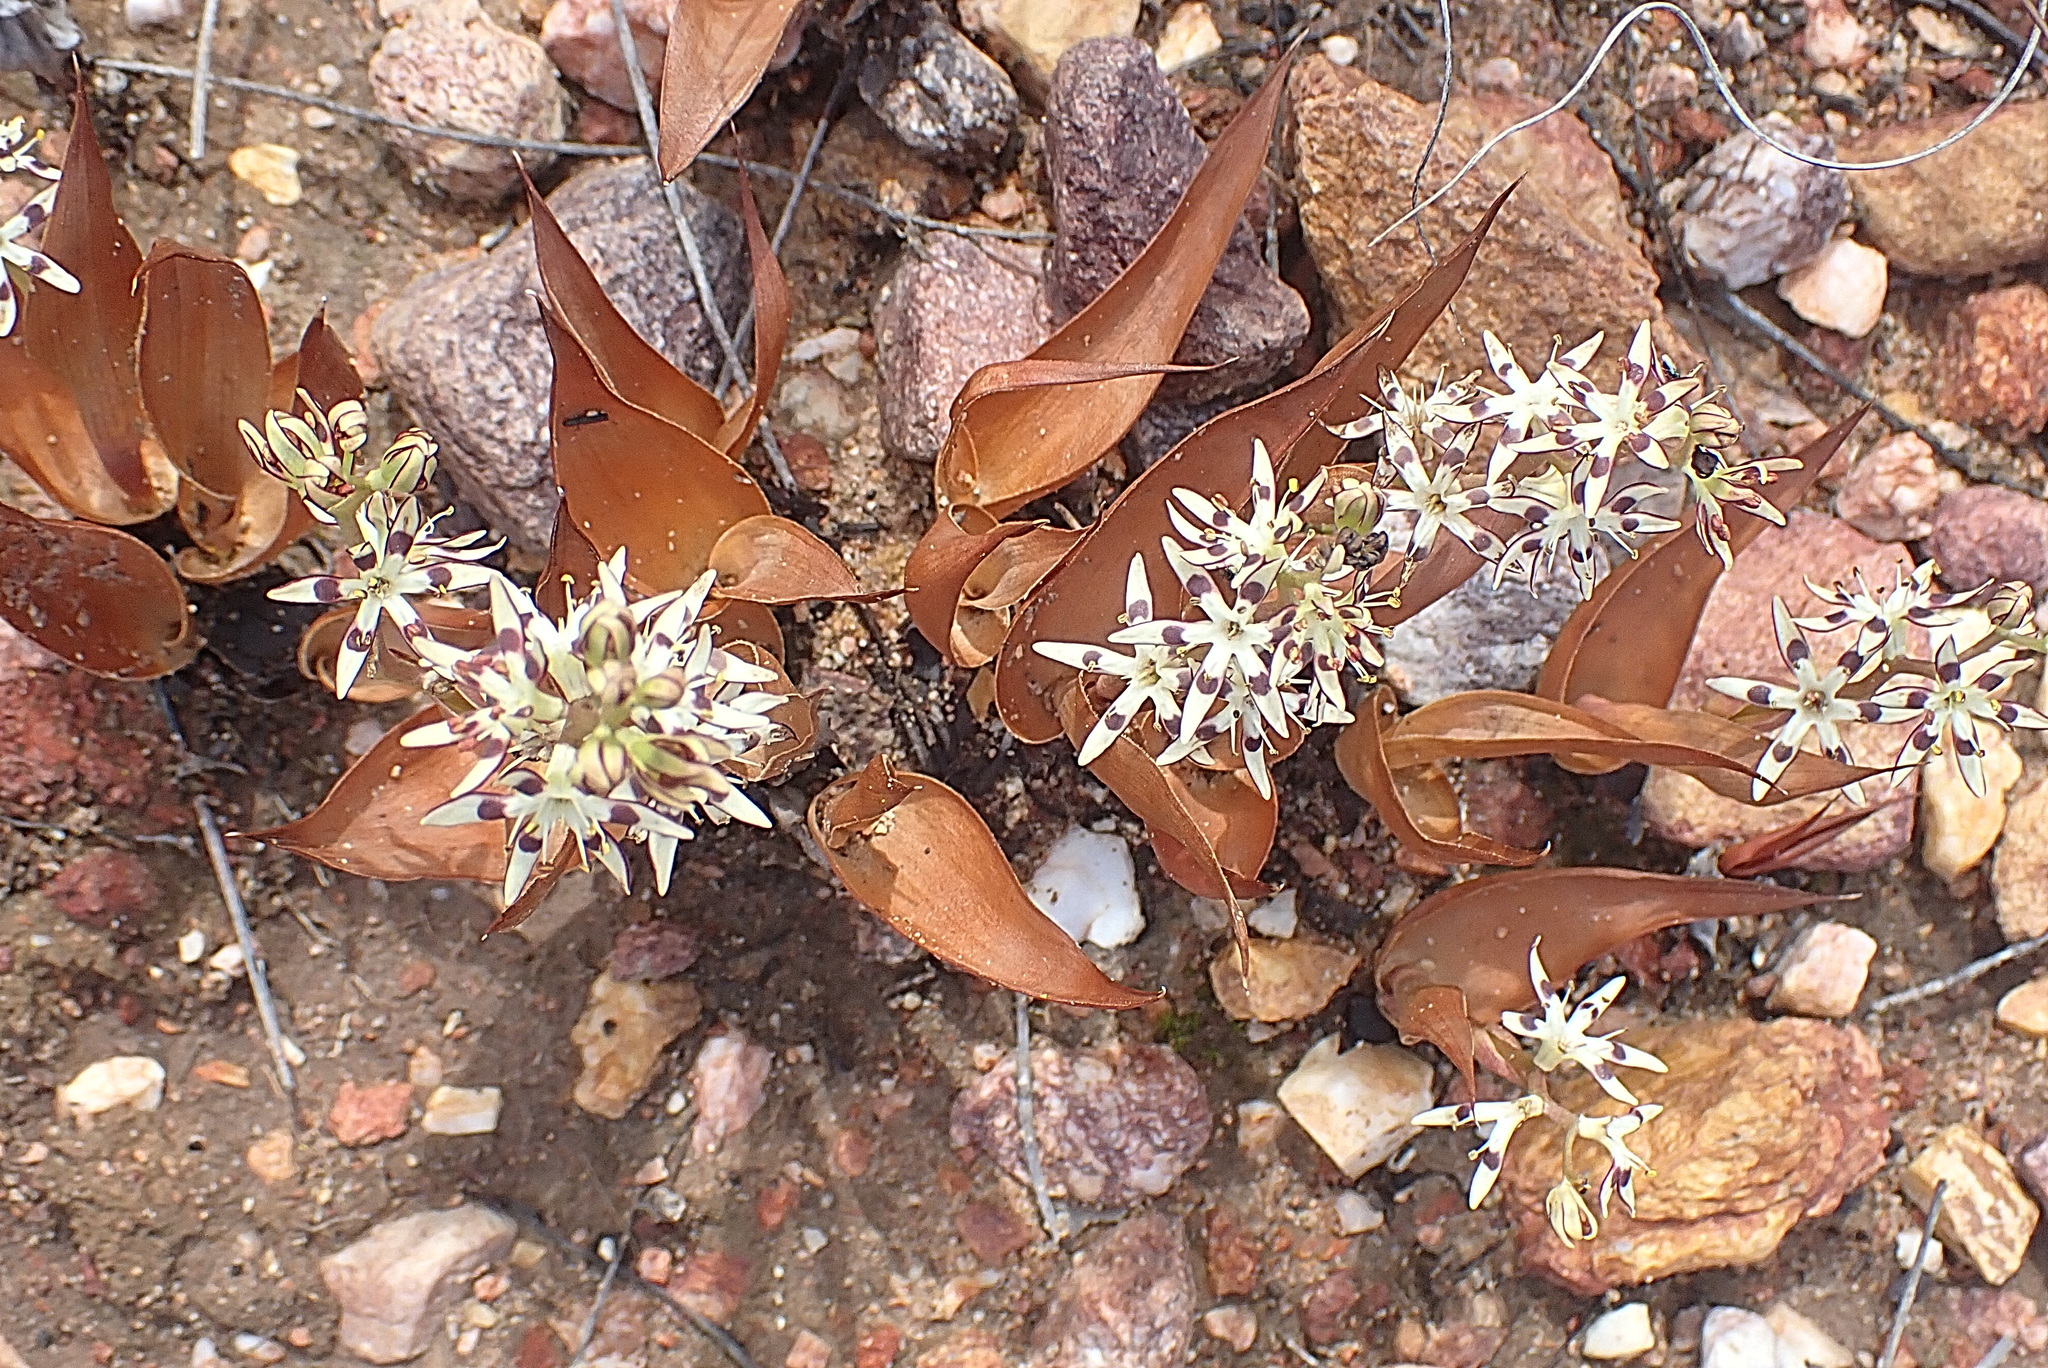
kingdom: Plantae
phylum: Tracheophyta
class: Liliopsida
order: Liliales
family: Colchicaceae
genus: Wurmbea
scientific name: Wurmbea variabilis
